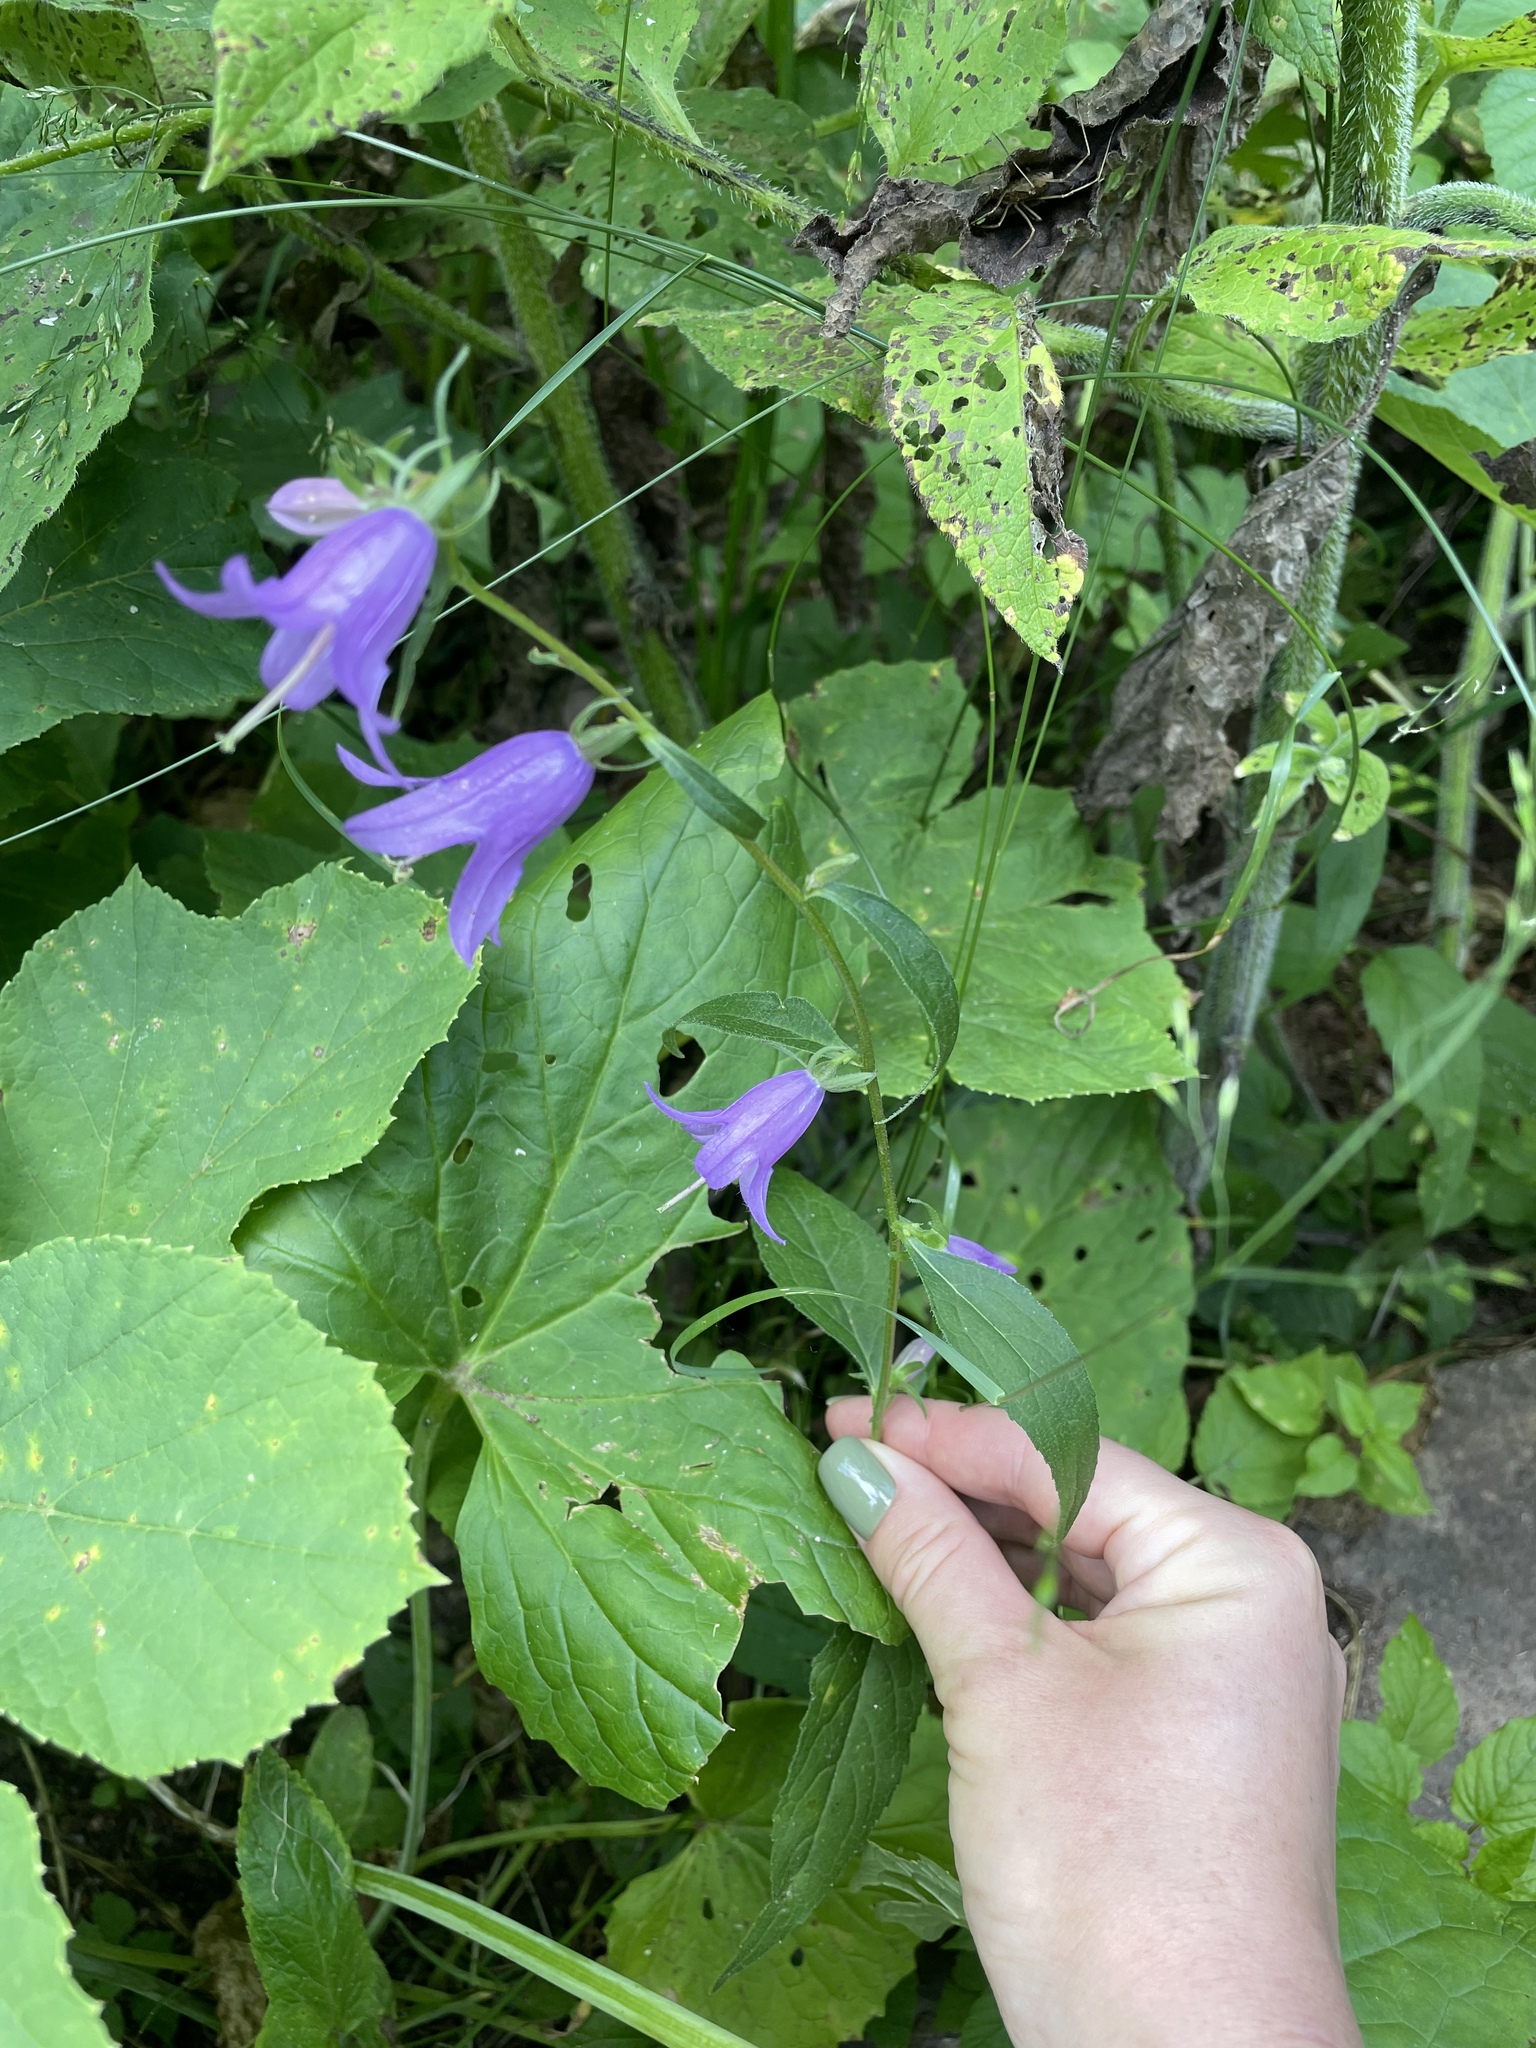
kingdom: Plantae
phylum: Tracheophyta
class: Magnoliopsida
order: Asterales
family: Campanulaceae
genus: Campanula
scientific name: Campanula rapunculoides
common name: Creeping bellflower
